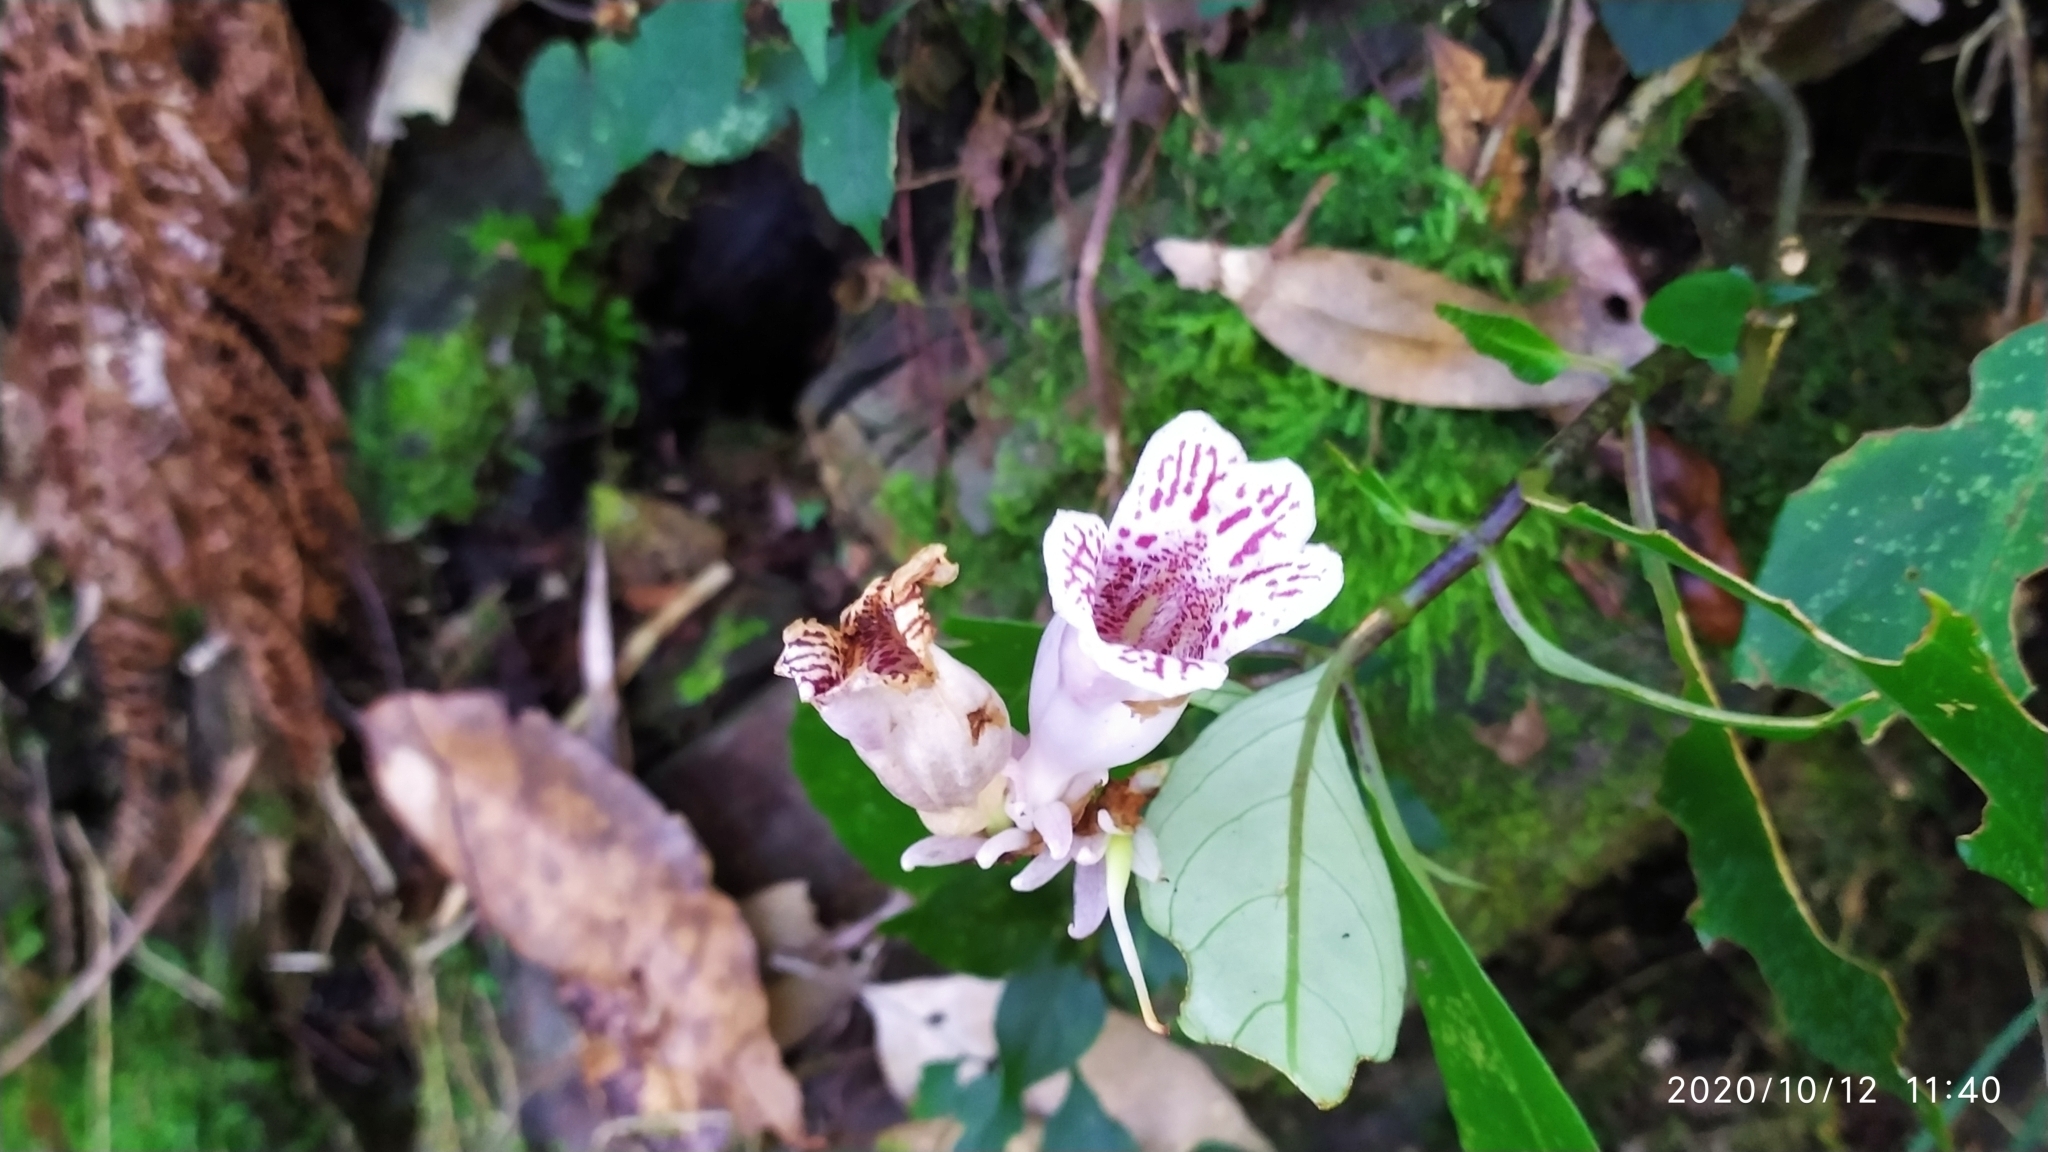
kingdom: Plantae
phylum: Tracheophyta
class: Magnoliopsida
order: Lamiales
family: Gesneriaceae
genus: Hemiboea
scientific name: Hemiboea bicornuta
